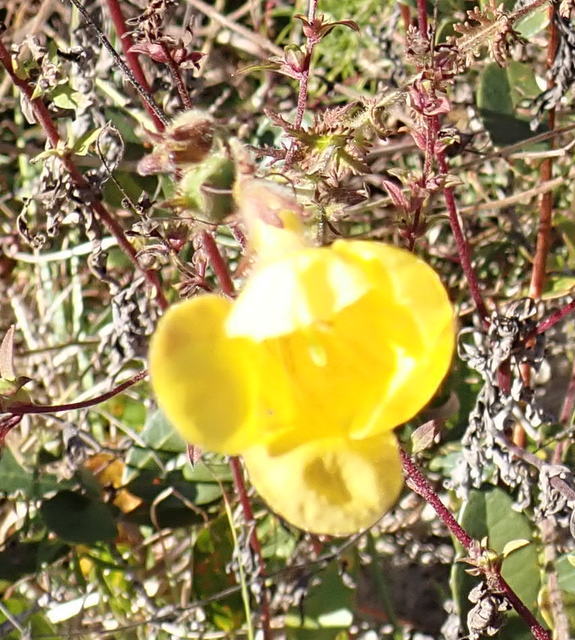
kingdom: Plantae
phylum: Tracheophyta
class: Magnoliopsida
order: Lamiales
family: Orobanchaceae
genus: Aureolaria
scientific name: Aureolaria pectinata
